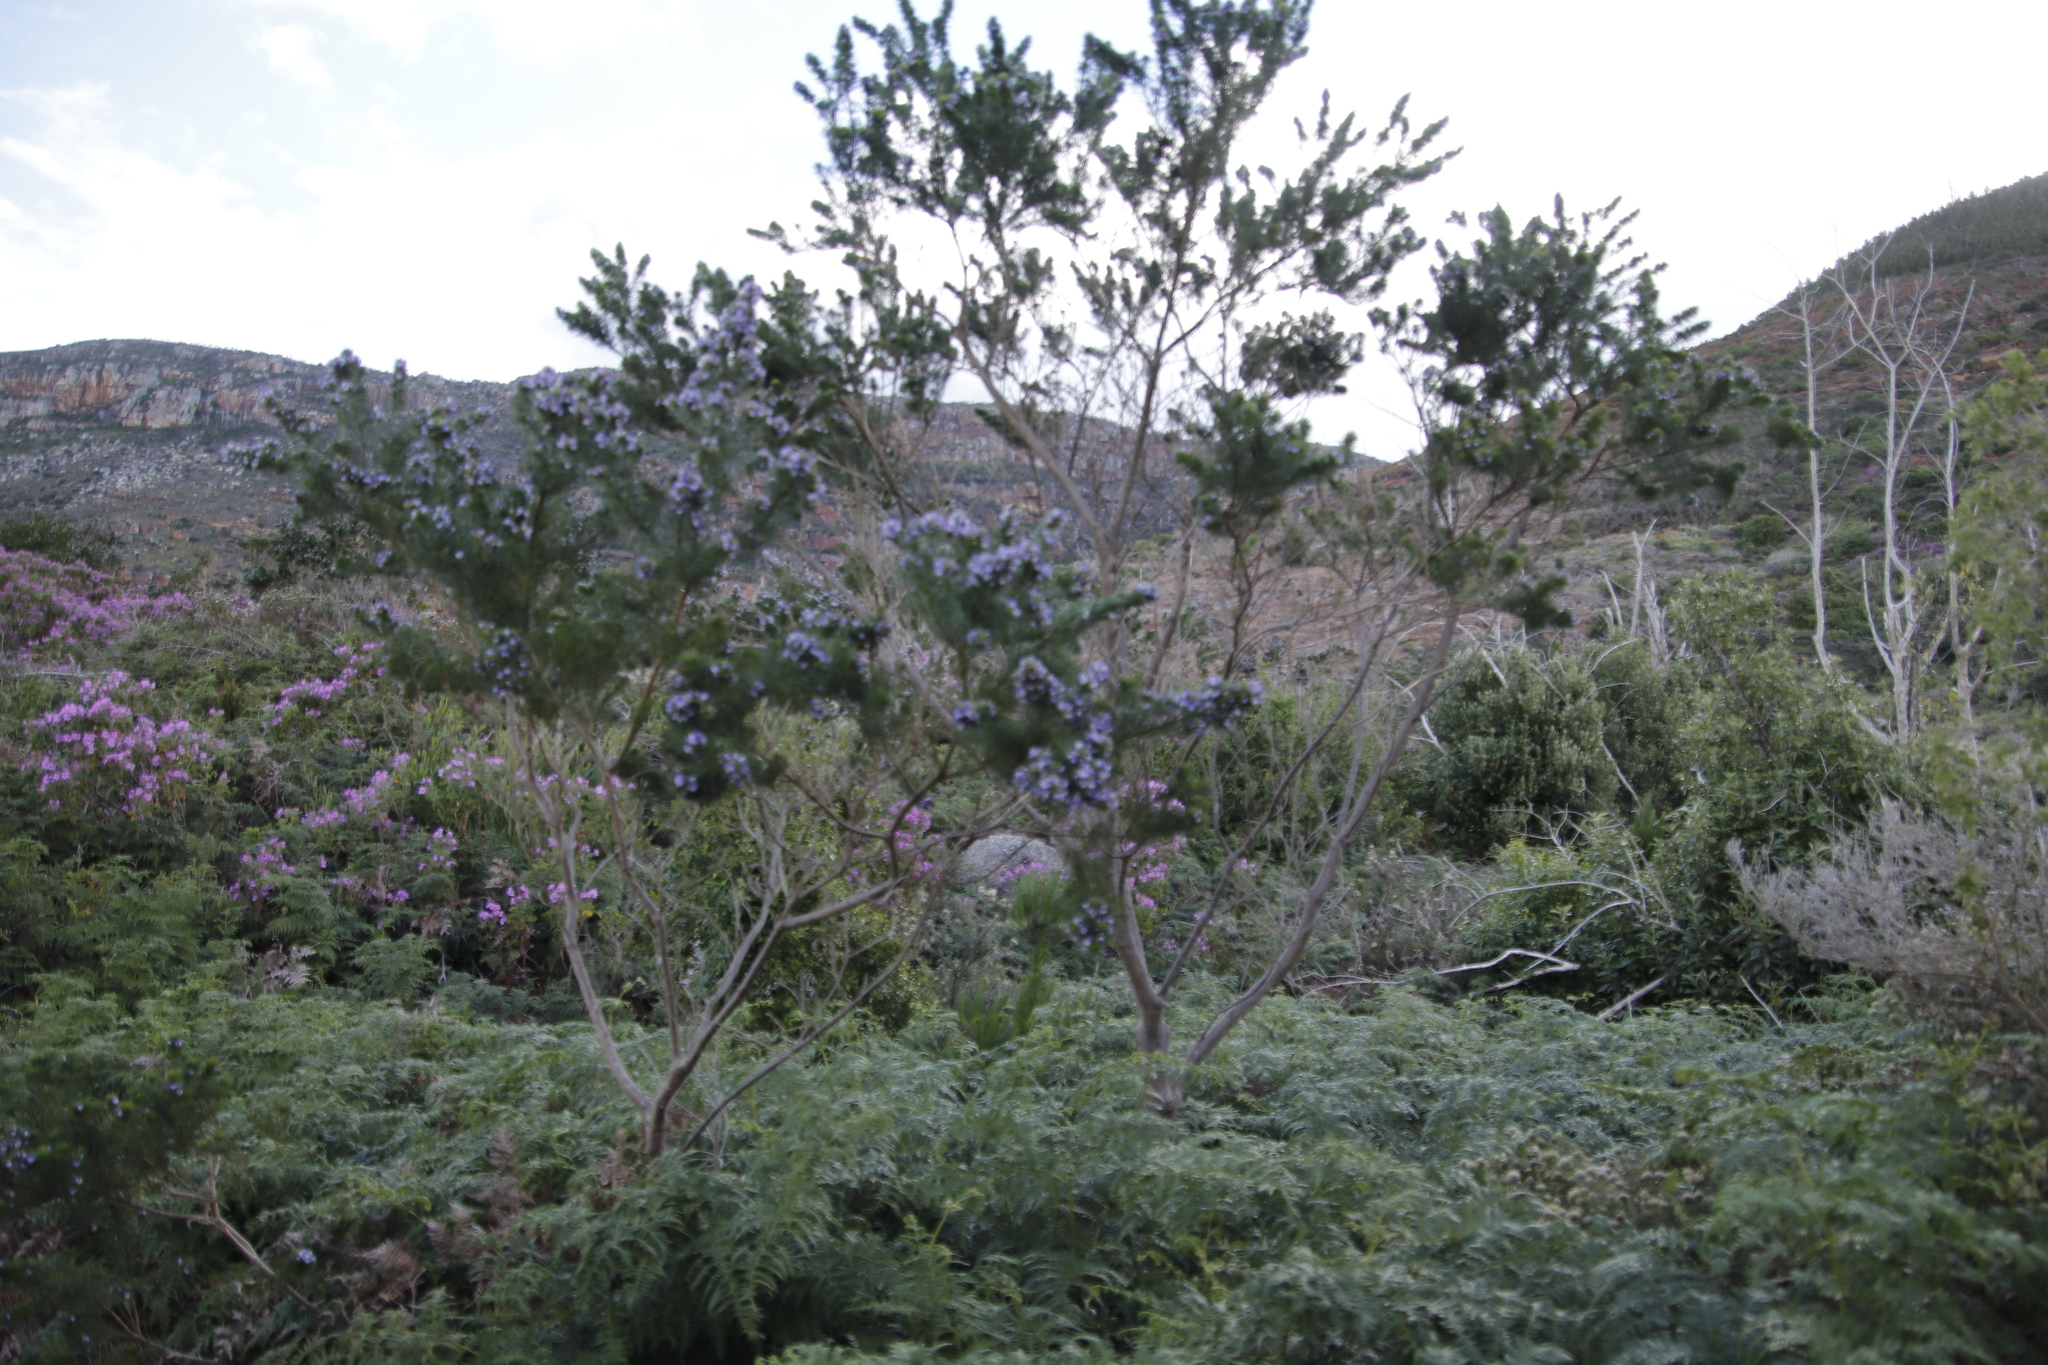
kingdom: Plantae
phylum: Tracheophyta
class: Magnoliopsida
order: Fabales
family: Fabaceae
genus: Psoralea
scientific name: Psoralea pinnata
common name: African scurfpea
